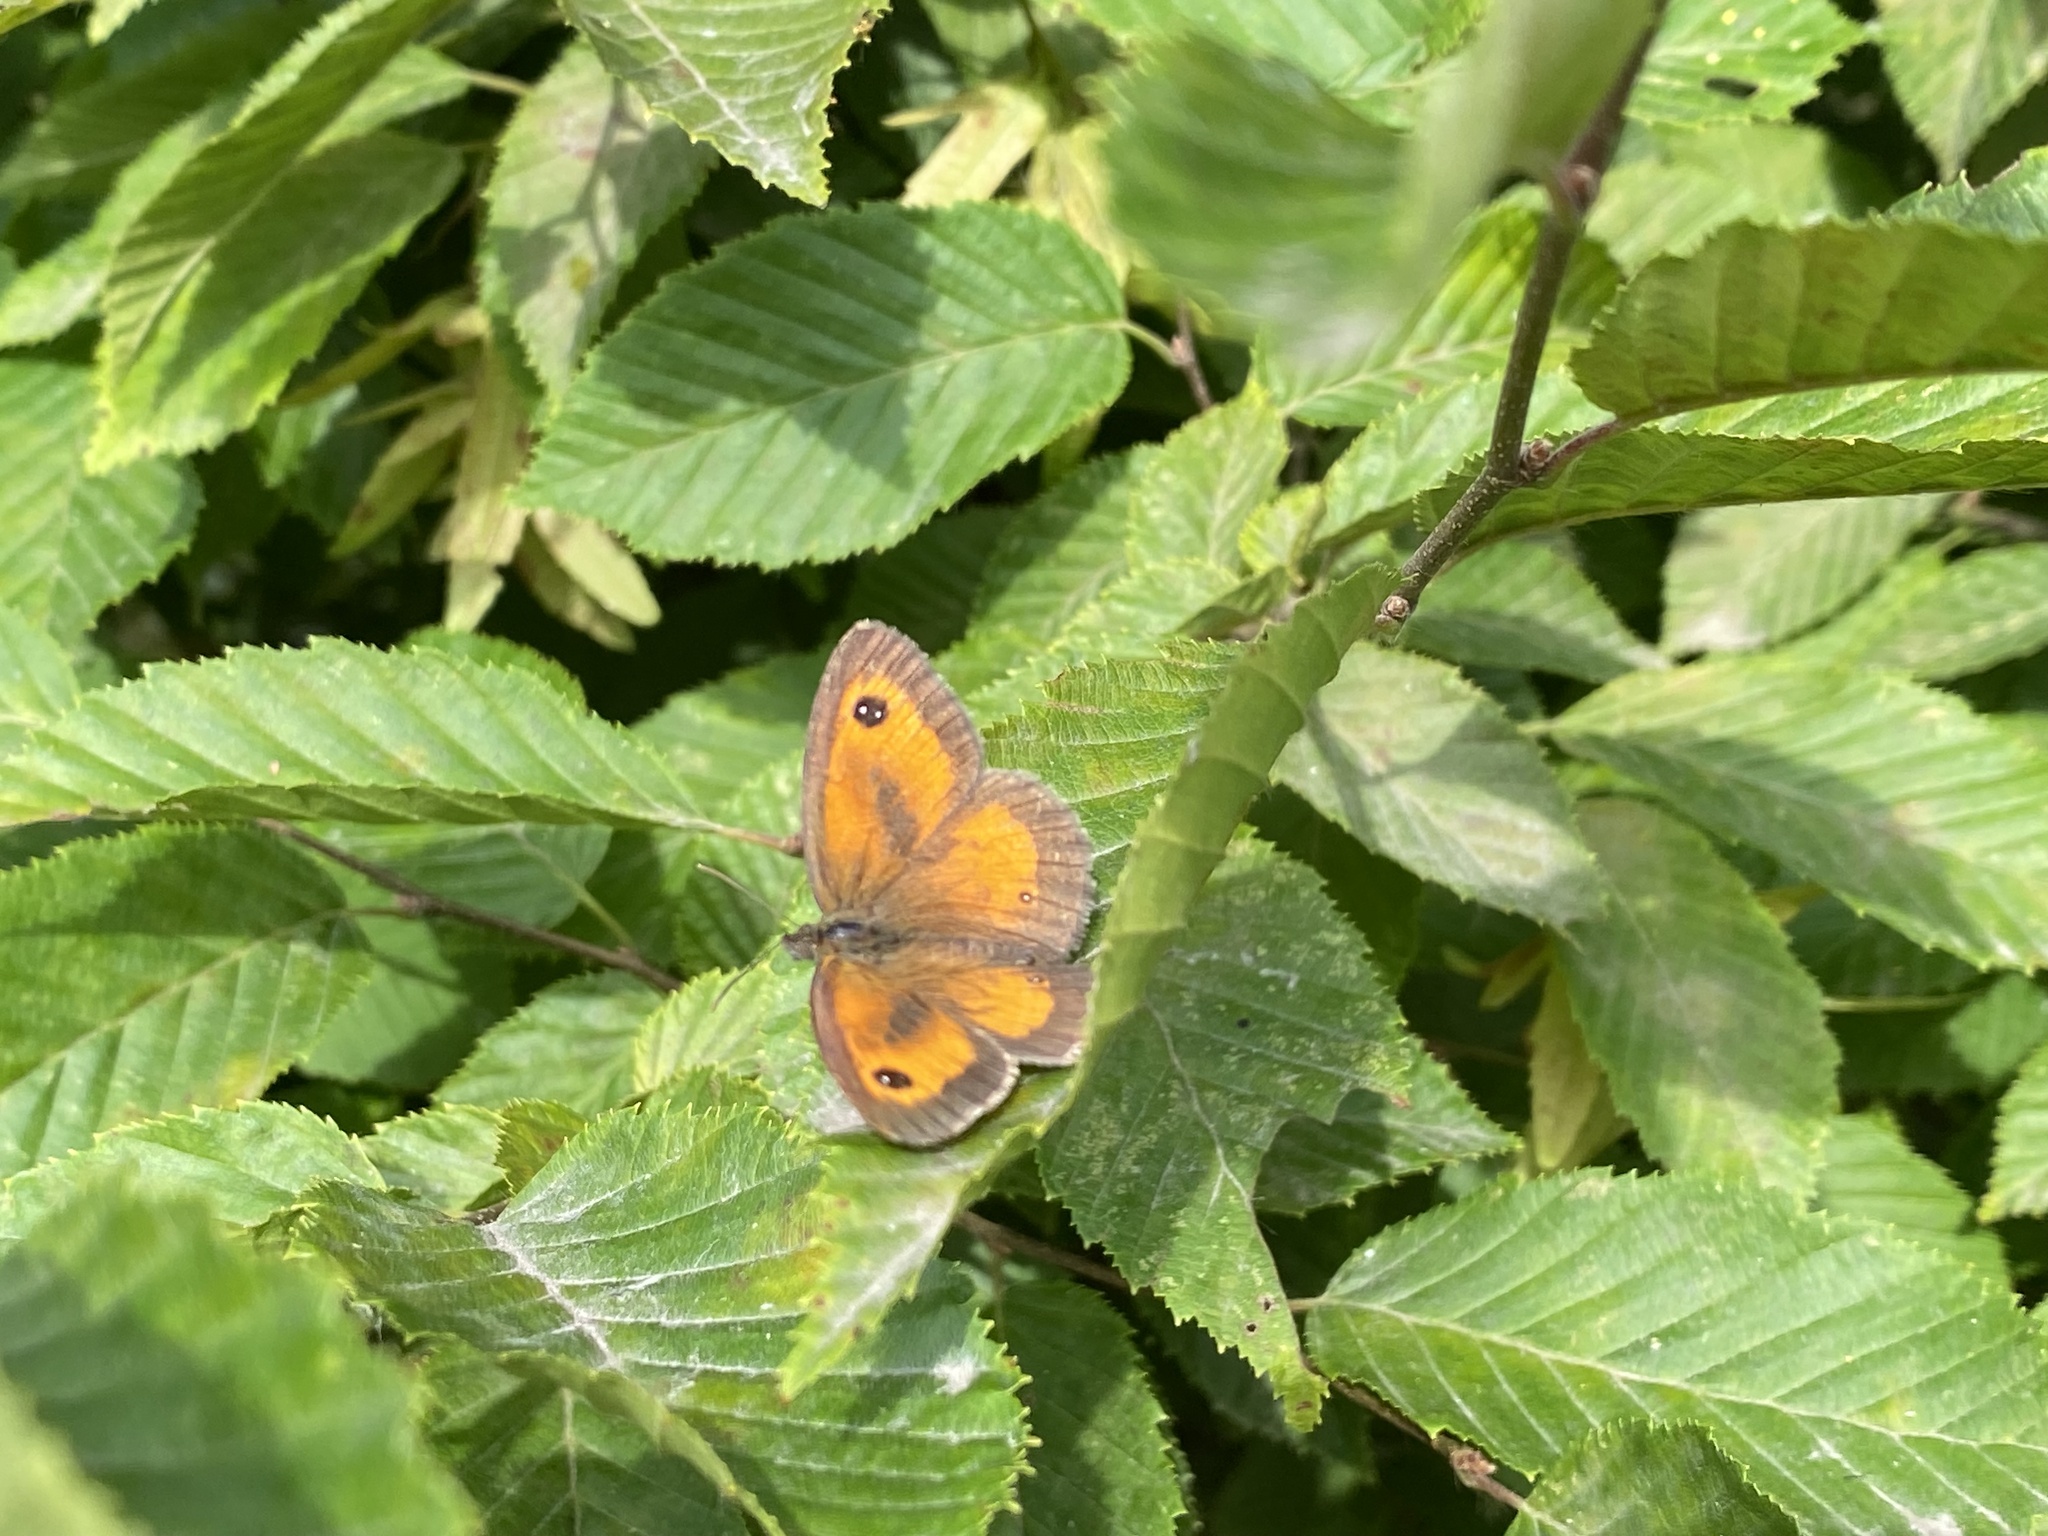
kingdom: Animalia
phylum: Arthropoda
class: Insecta
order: Lepidoptera
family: Nymphalidae
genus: Pyronia
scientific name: Pyronia tithonus
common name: Gatekeeper
